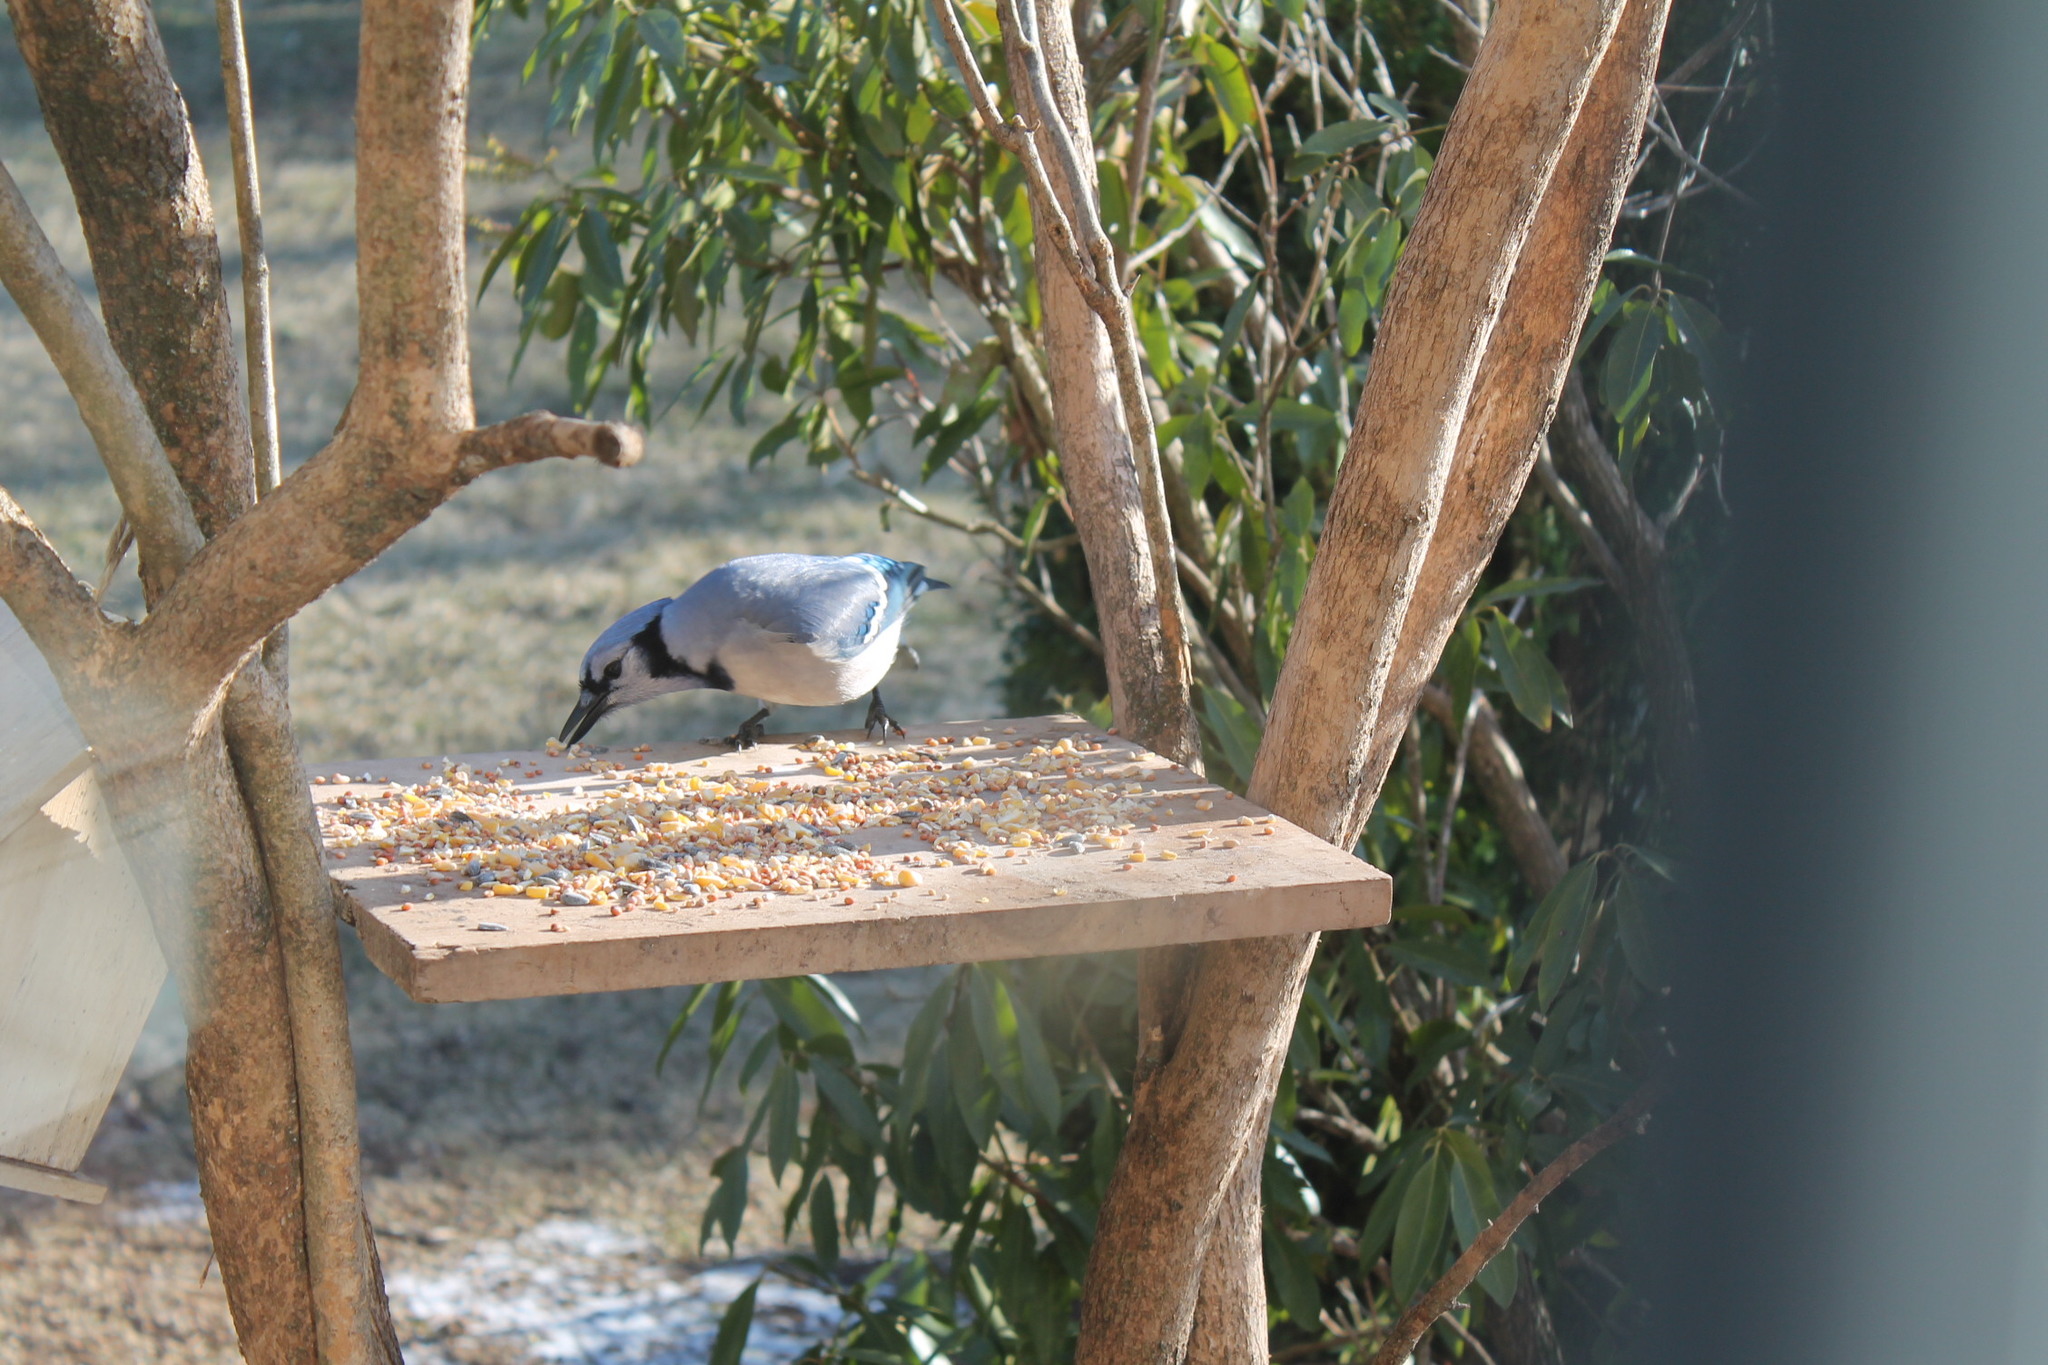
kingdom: Animalia
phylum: Chordata
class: Aves
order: Passeriformes
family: Corvidae
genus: Cyanocitta
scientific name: Cyanocitta cristata
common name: Blue jay
